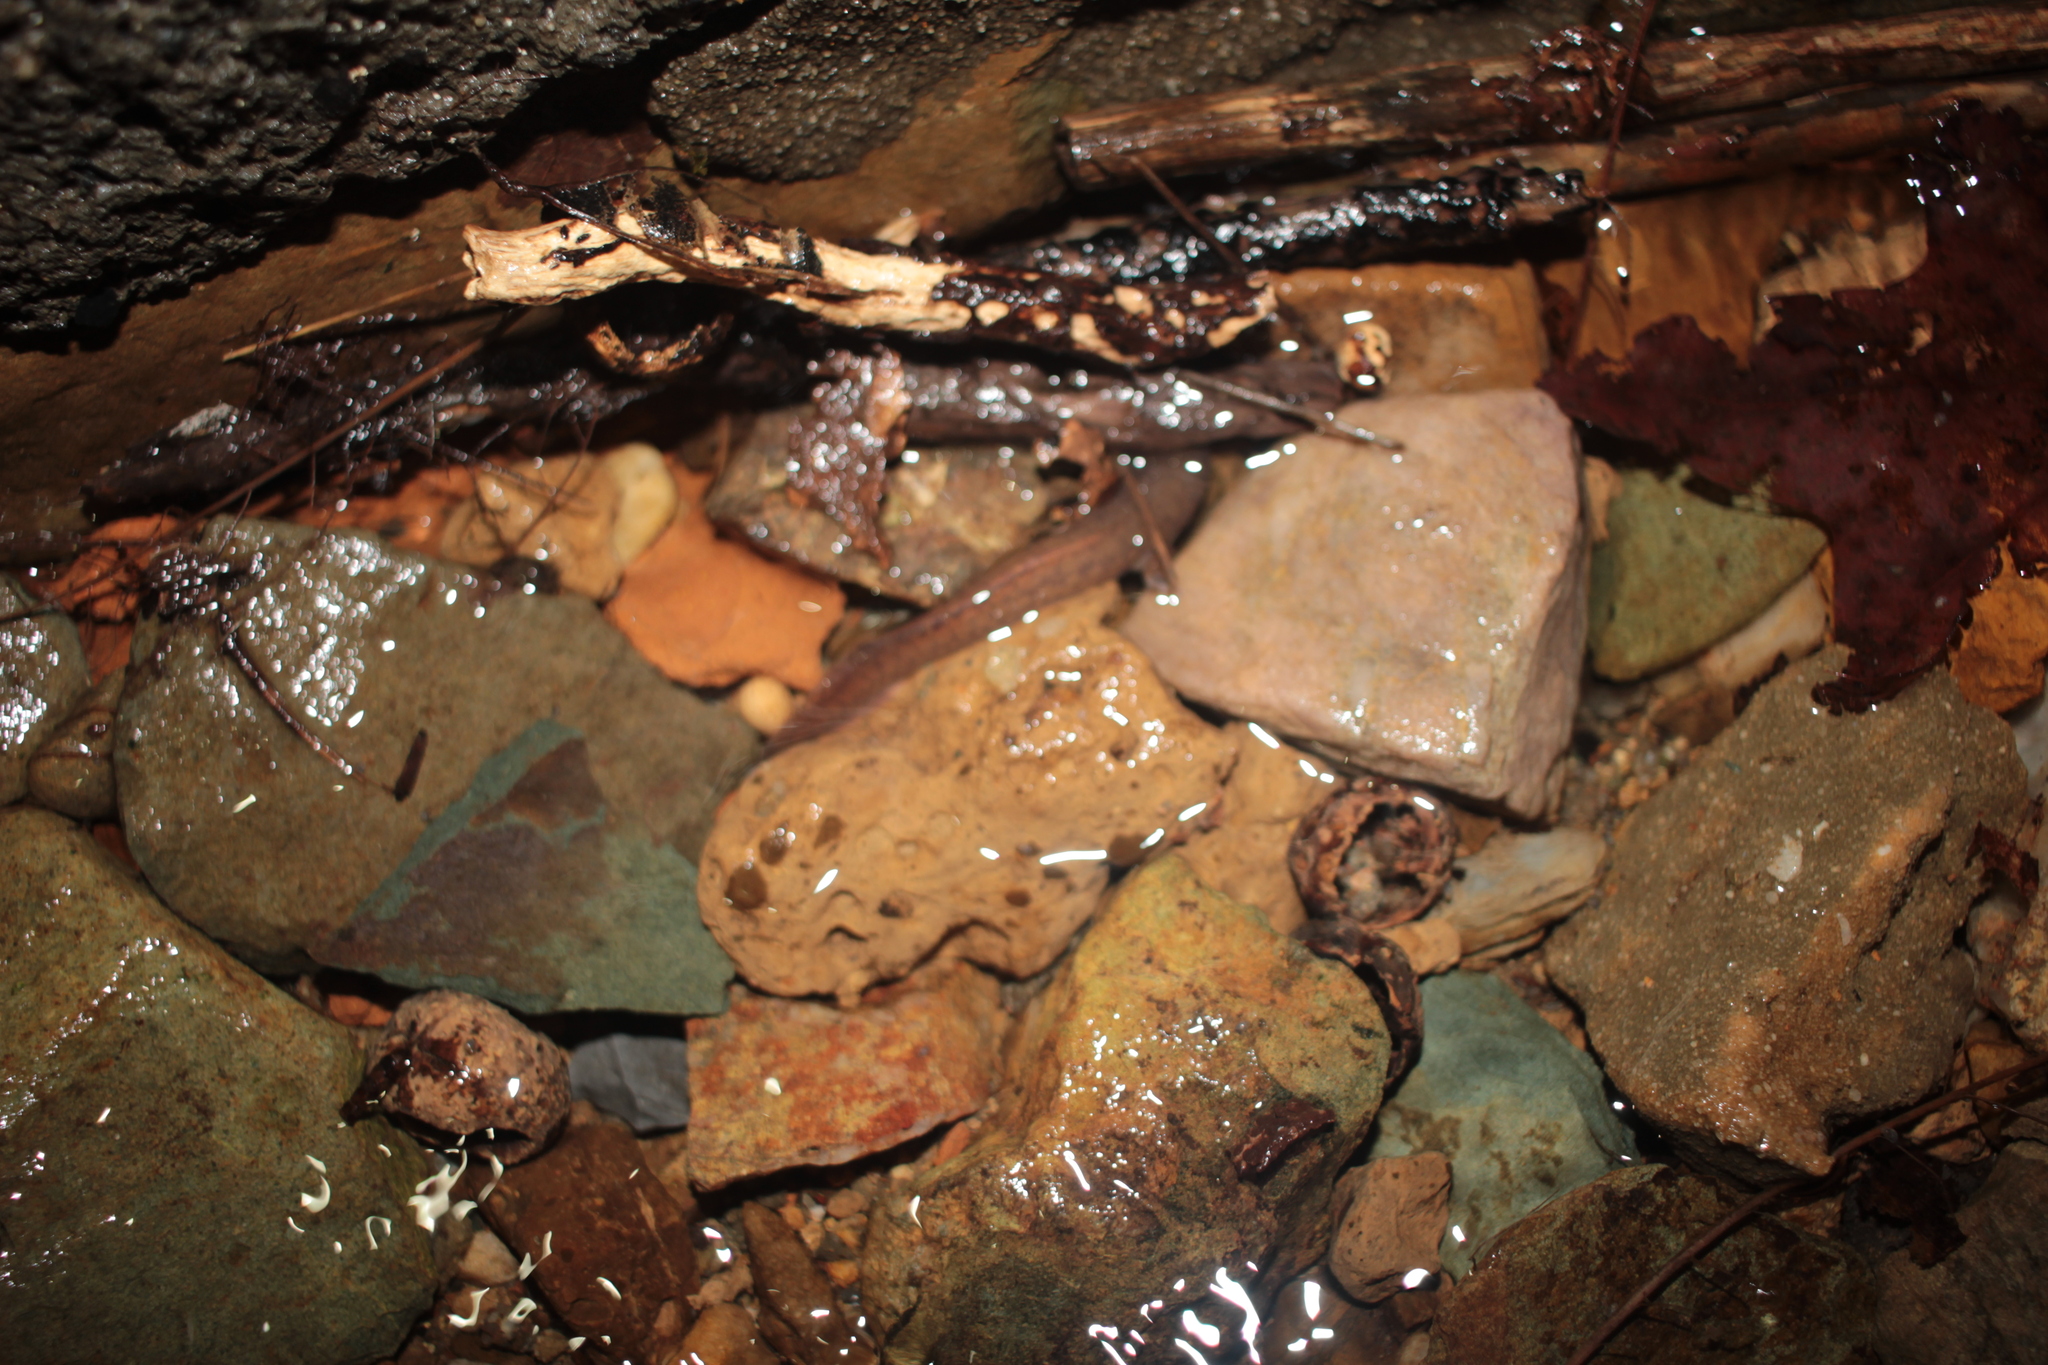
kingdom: Animalia
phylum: Chordata
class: Amphibia
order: Caudata
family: Plethodontidae
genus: Gyrinophilus
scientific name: Gyrinophilus porphyriticus
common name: Spring salamander
